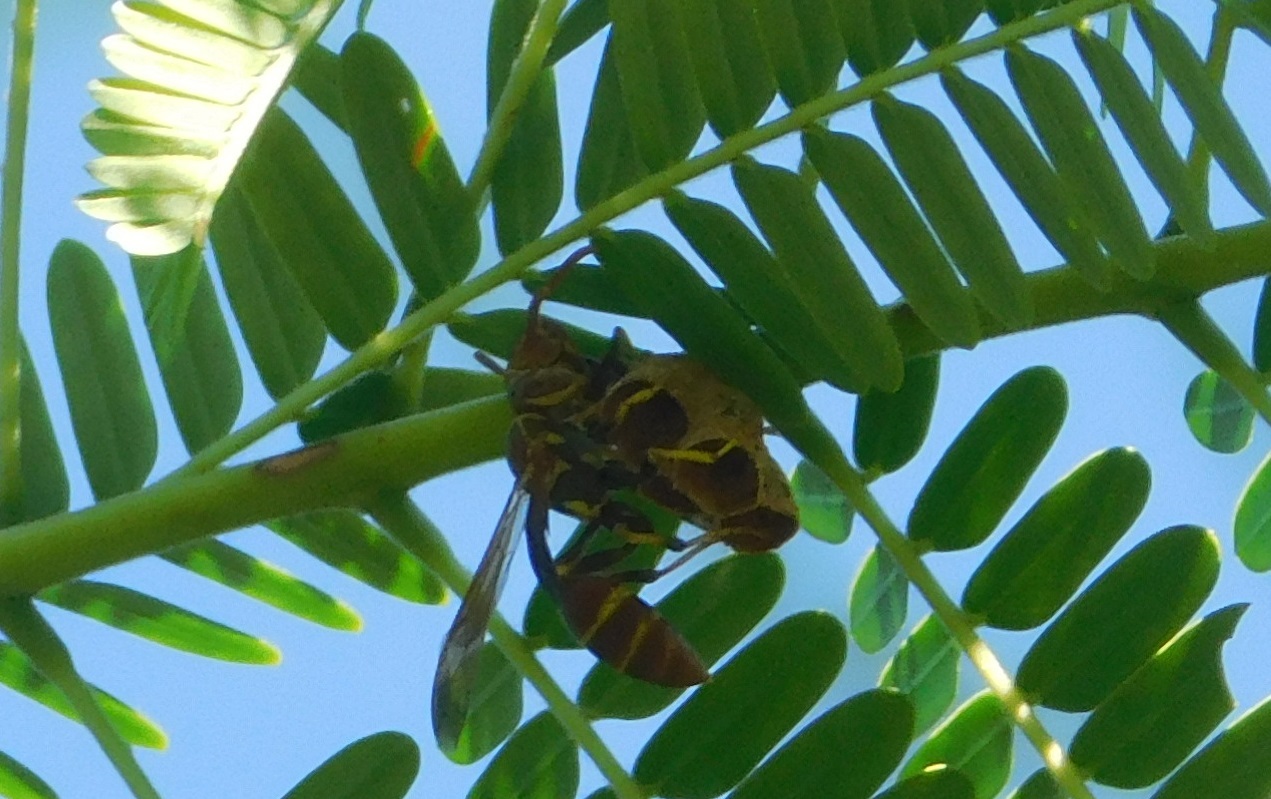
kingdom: Animalia
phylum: Arthropoda
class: Insecta
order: Hymenoptera
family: Vespidae
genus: Mischocyttarus
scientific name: Mischocyttarus mexicanus
